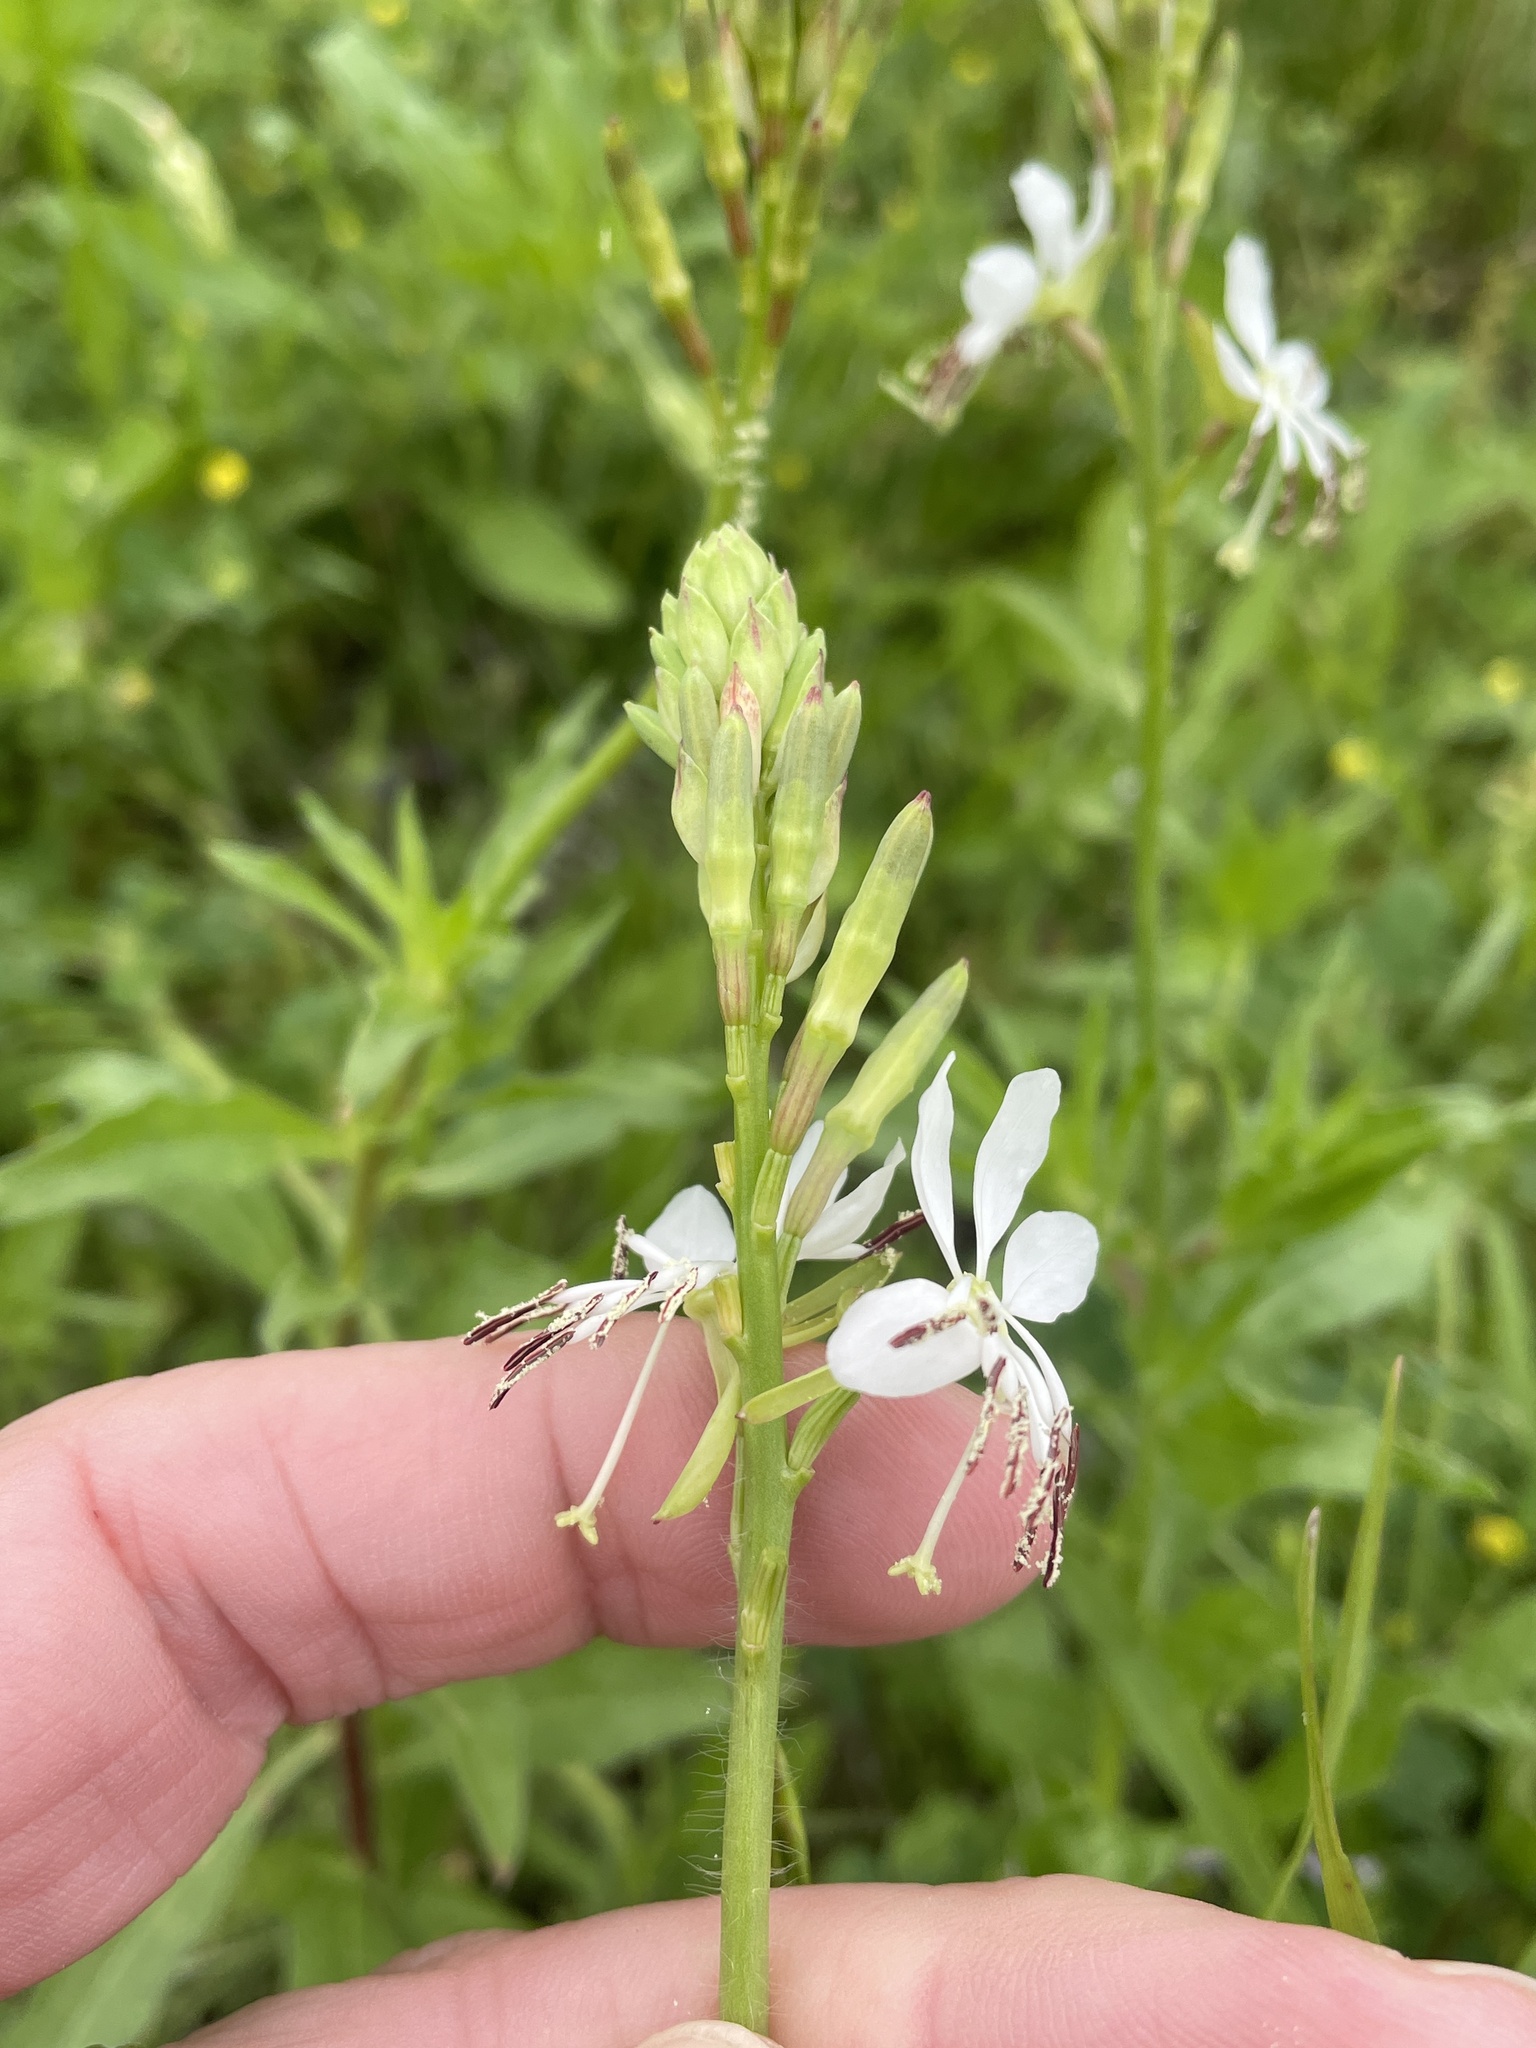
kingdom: Plantae
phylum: Tracheophyta
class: Magnoliopsida
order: Myrtales
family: Onagraceae
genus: Oenothera
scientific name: Oenothera suffulta
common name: Kisses
